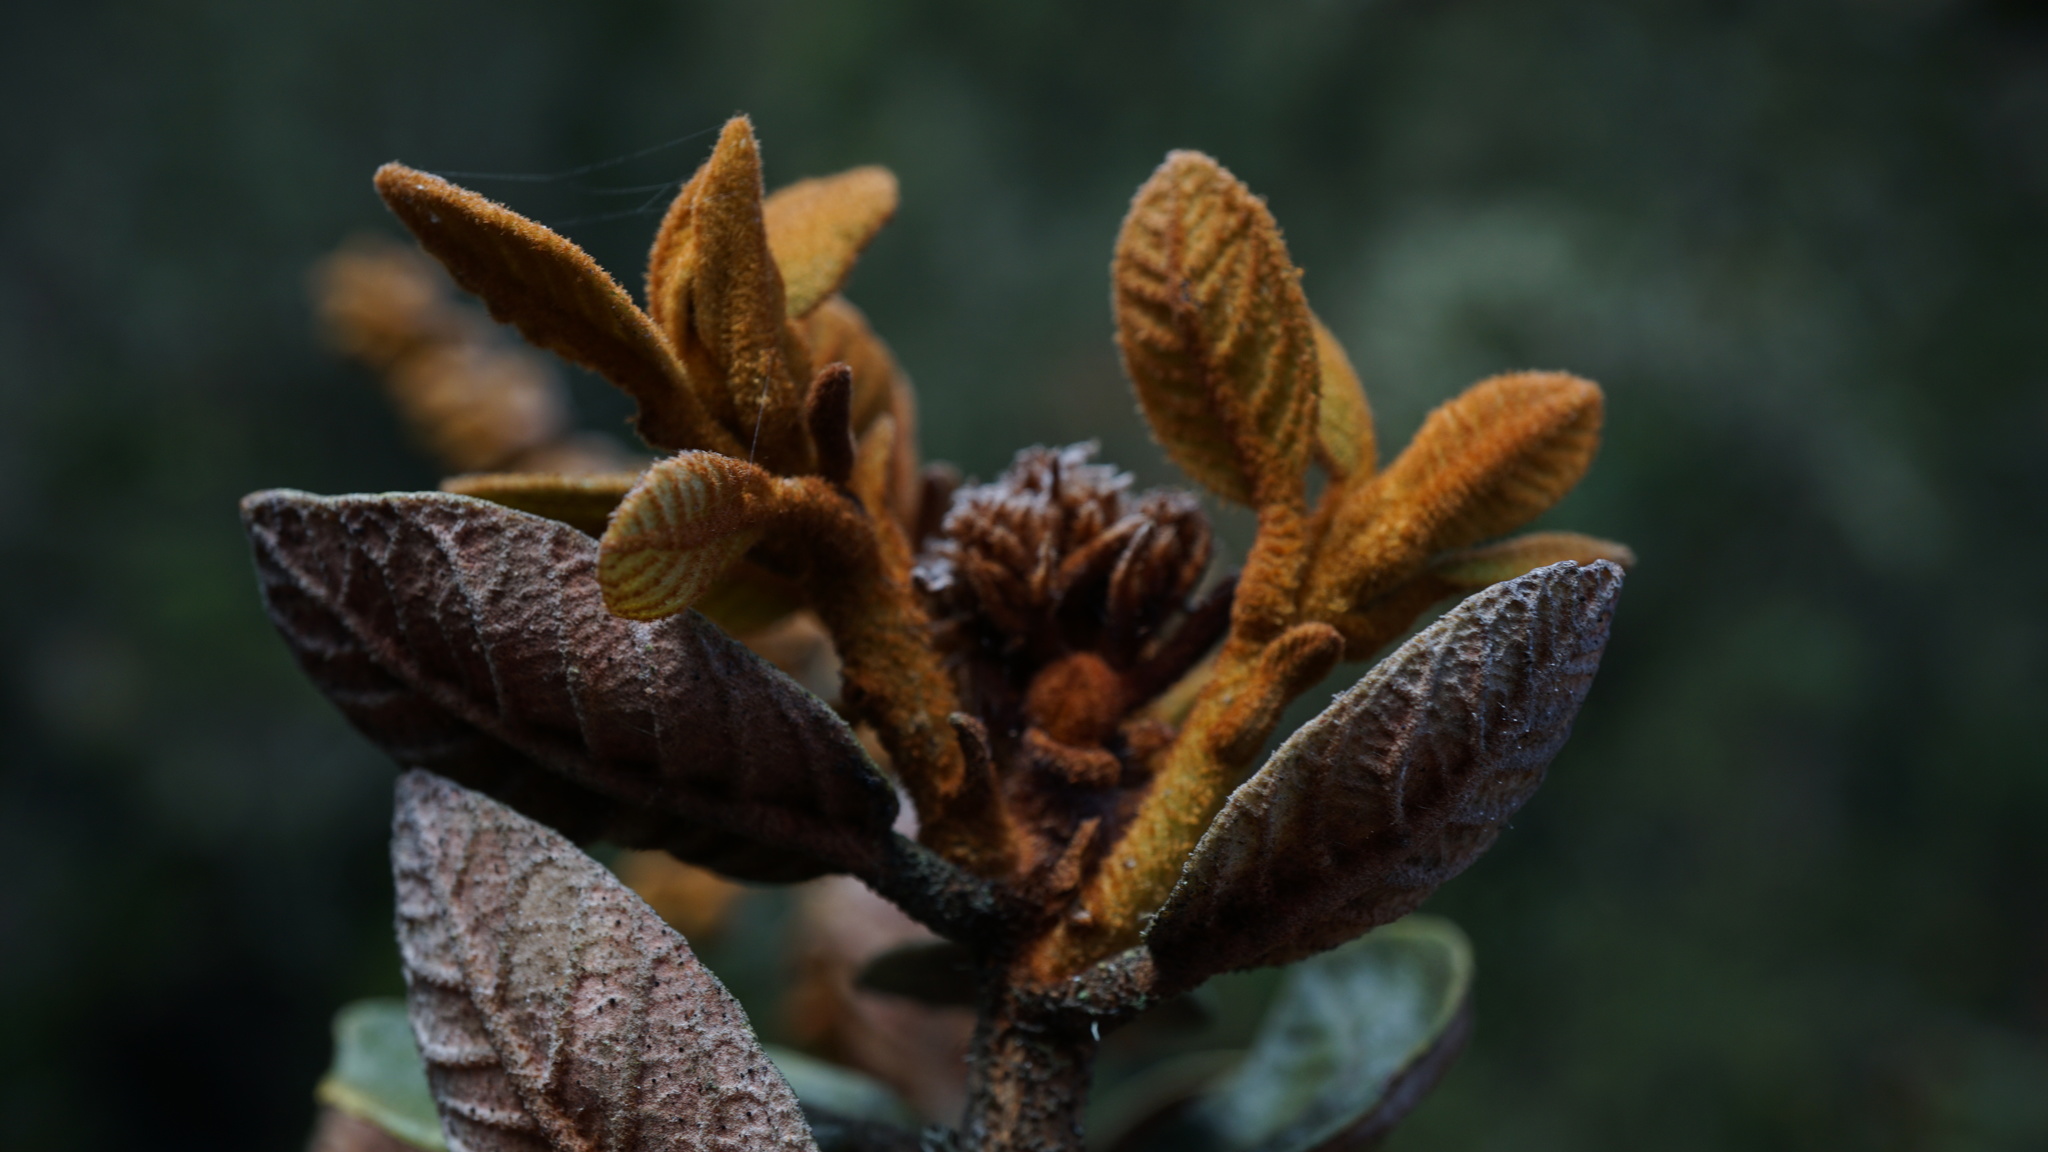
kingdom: Plantae
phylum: Tracheophyta
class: Magnoliopsida
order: Ericales
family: Clethraceae
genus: Clethra
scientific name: Clethra fimbriata
